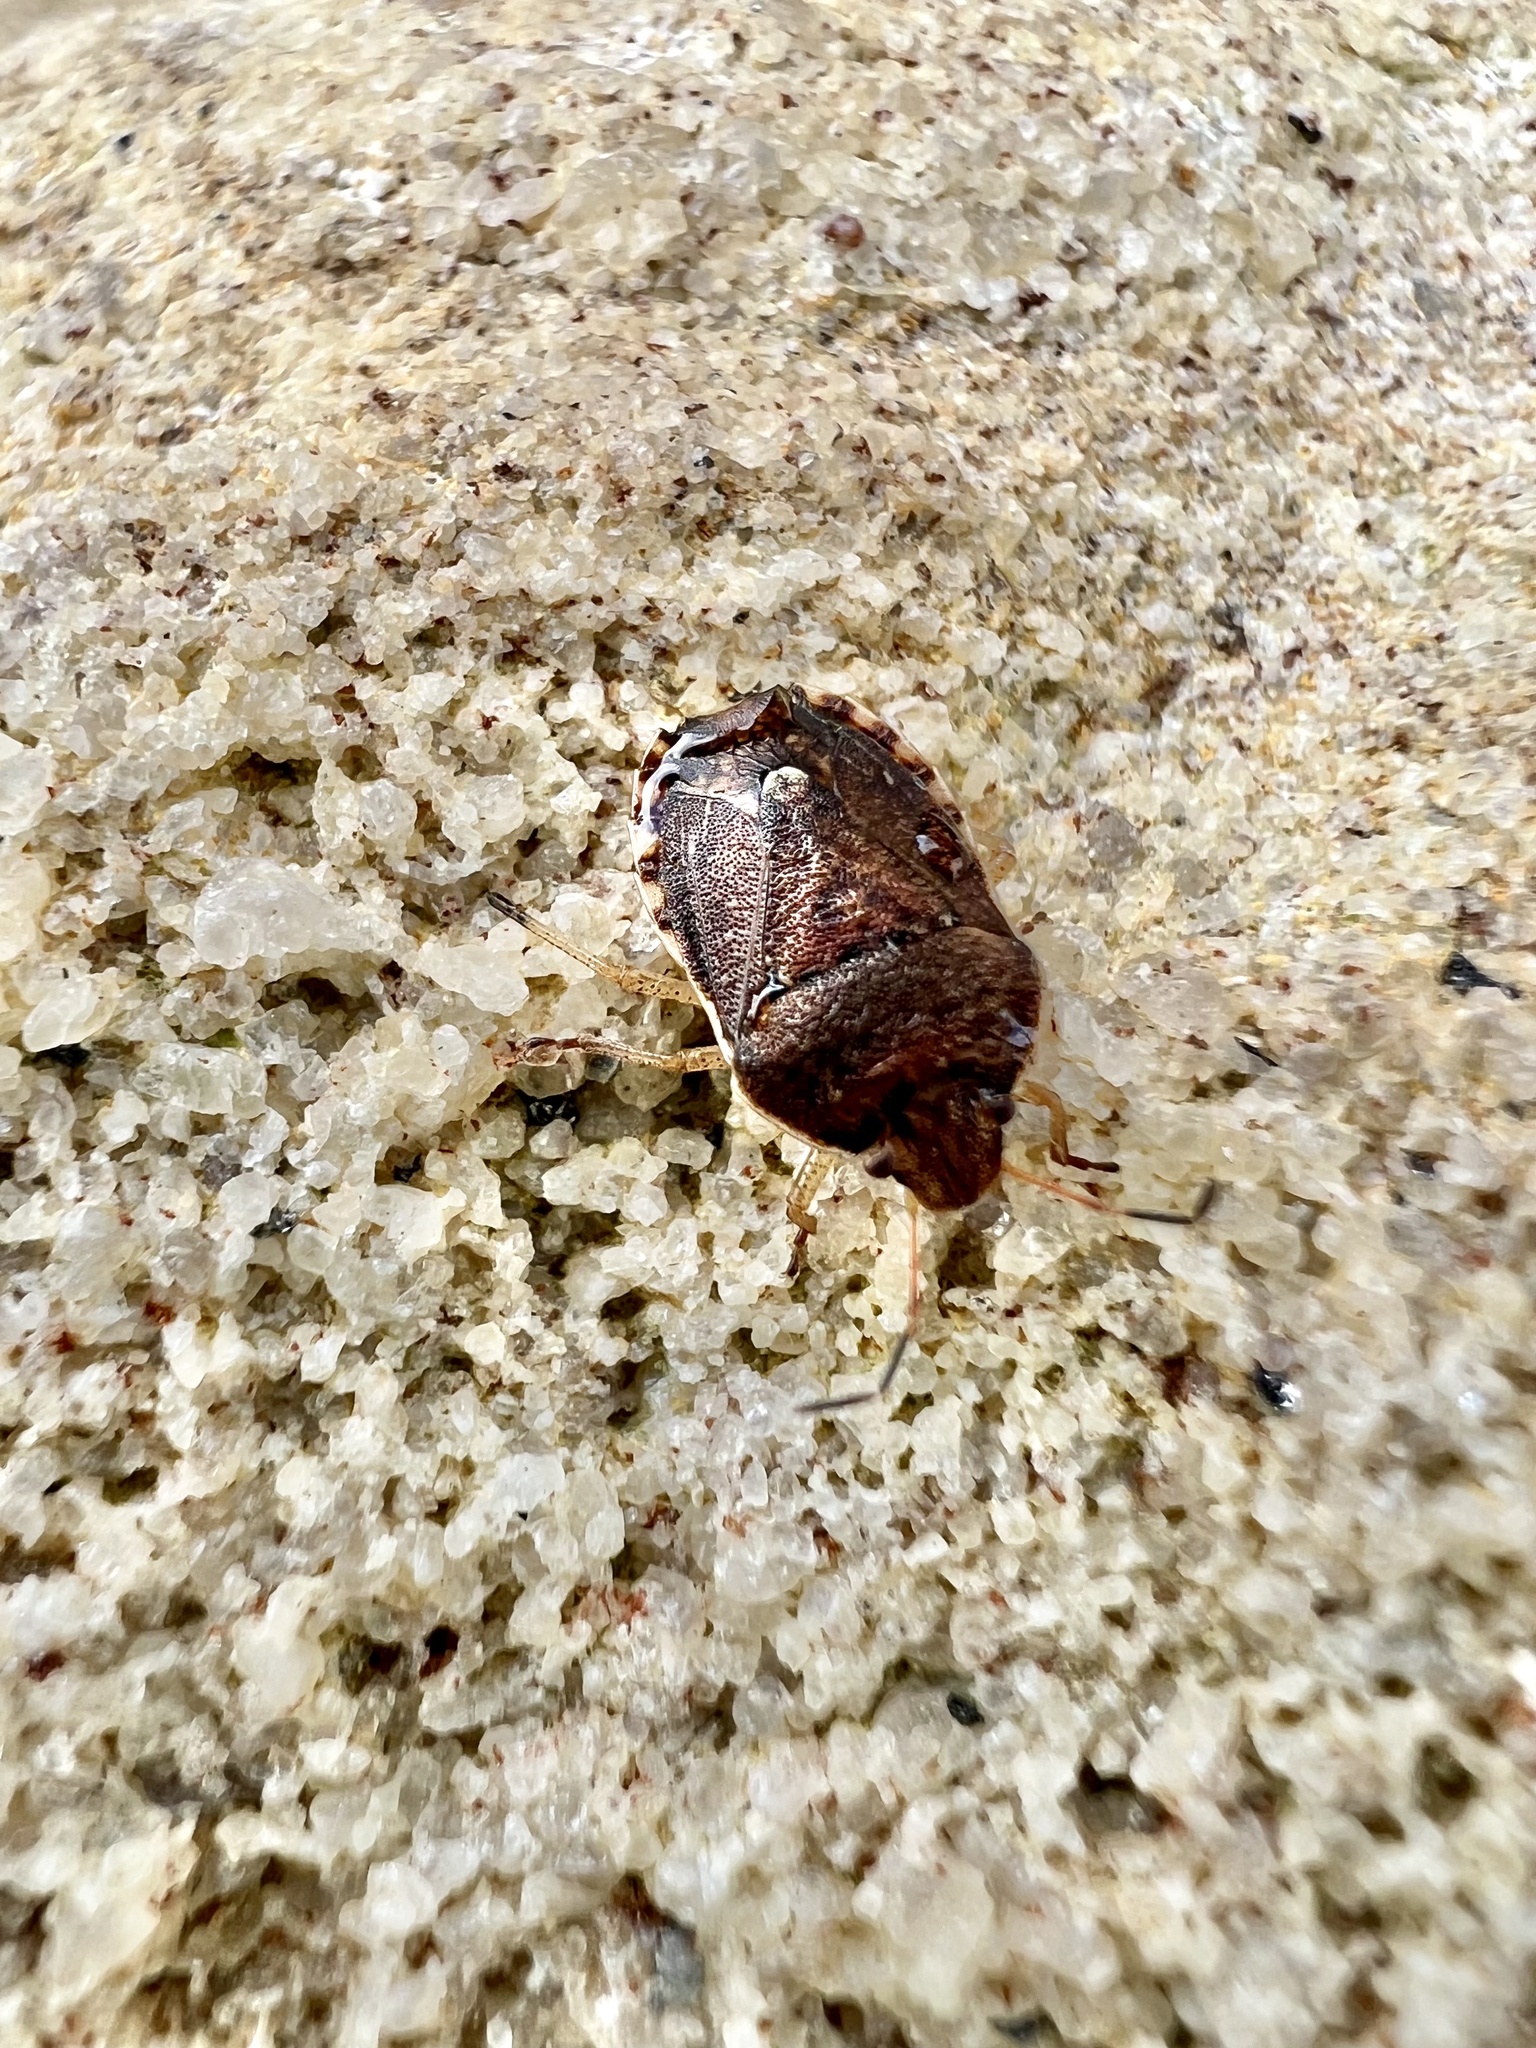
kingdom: Animalia
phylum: Arthropoda
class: Insecta
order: Hemiptera
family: Pentatomidae
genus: Dictyotus
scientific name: Dictyotus
